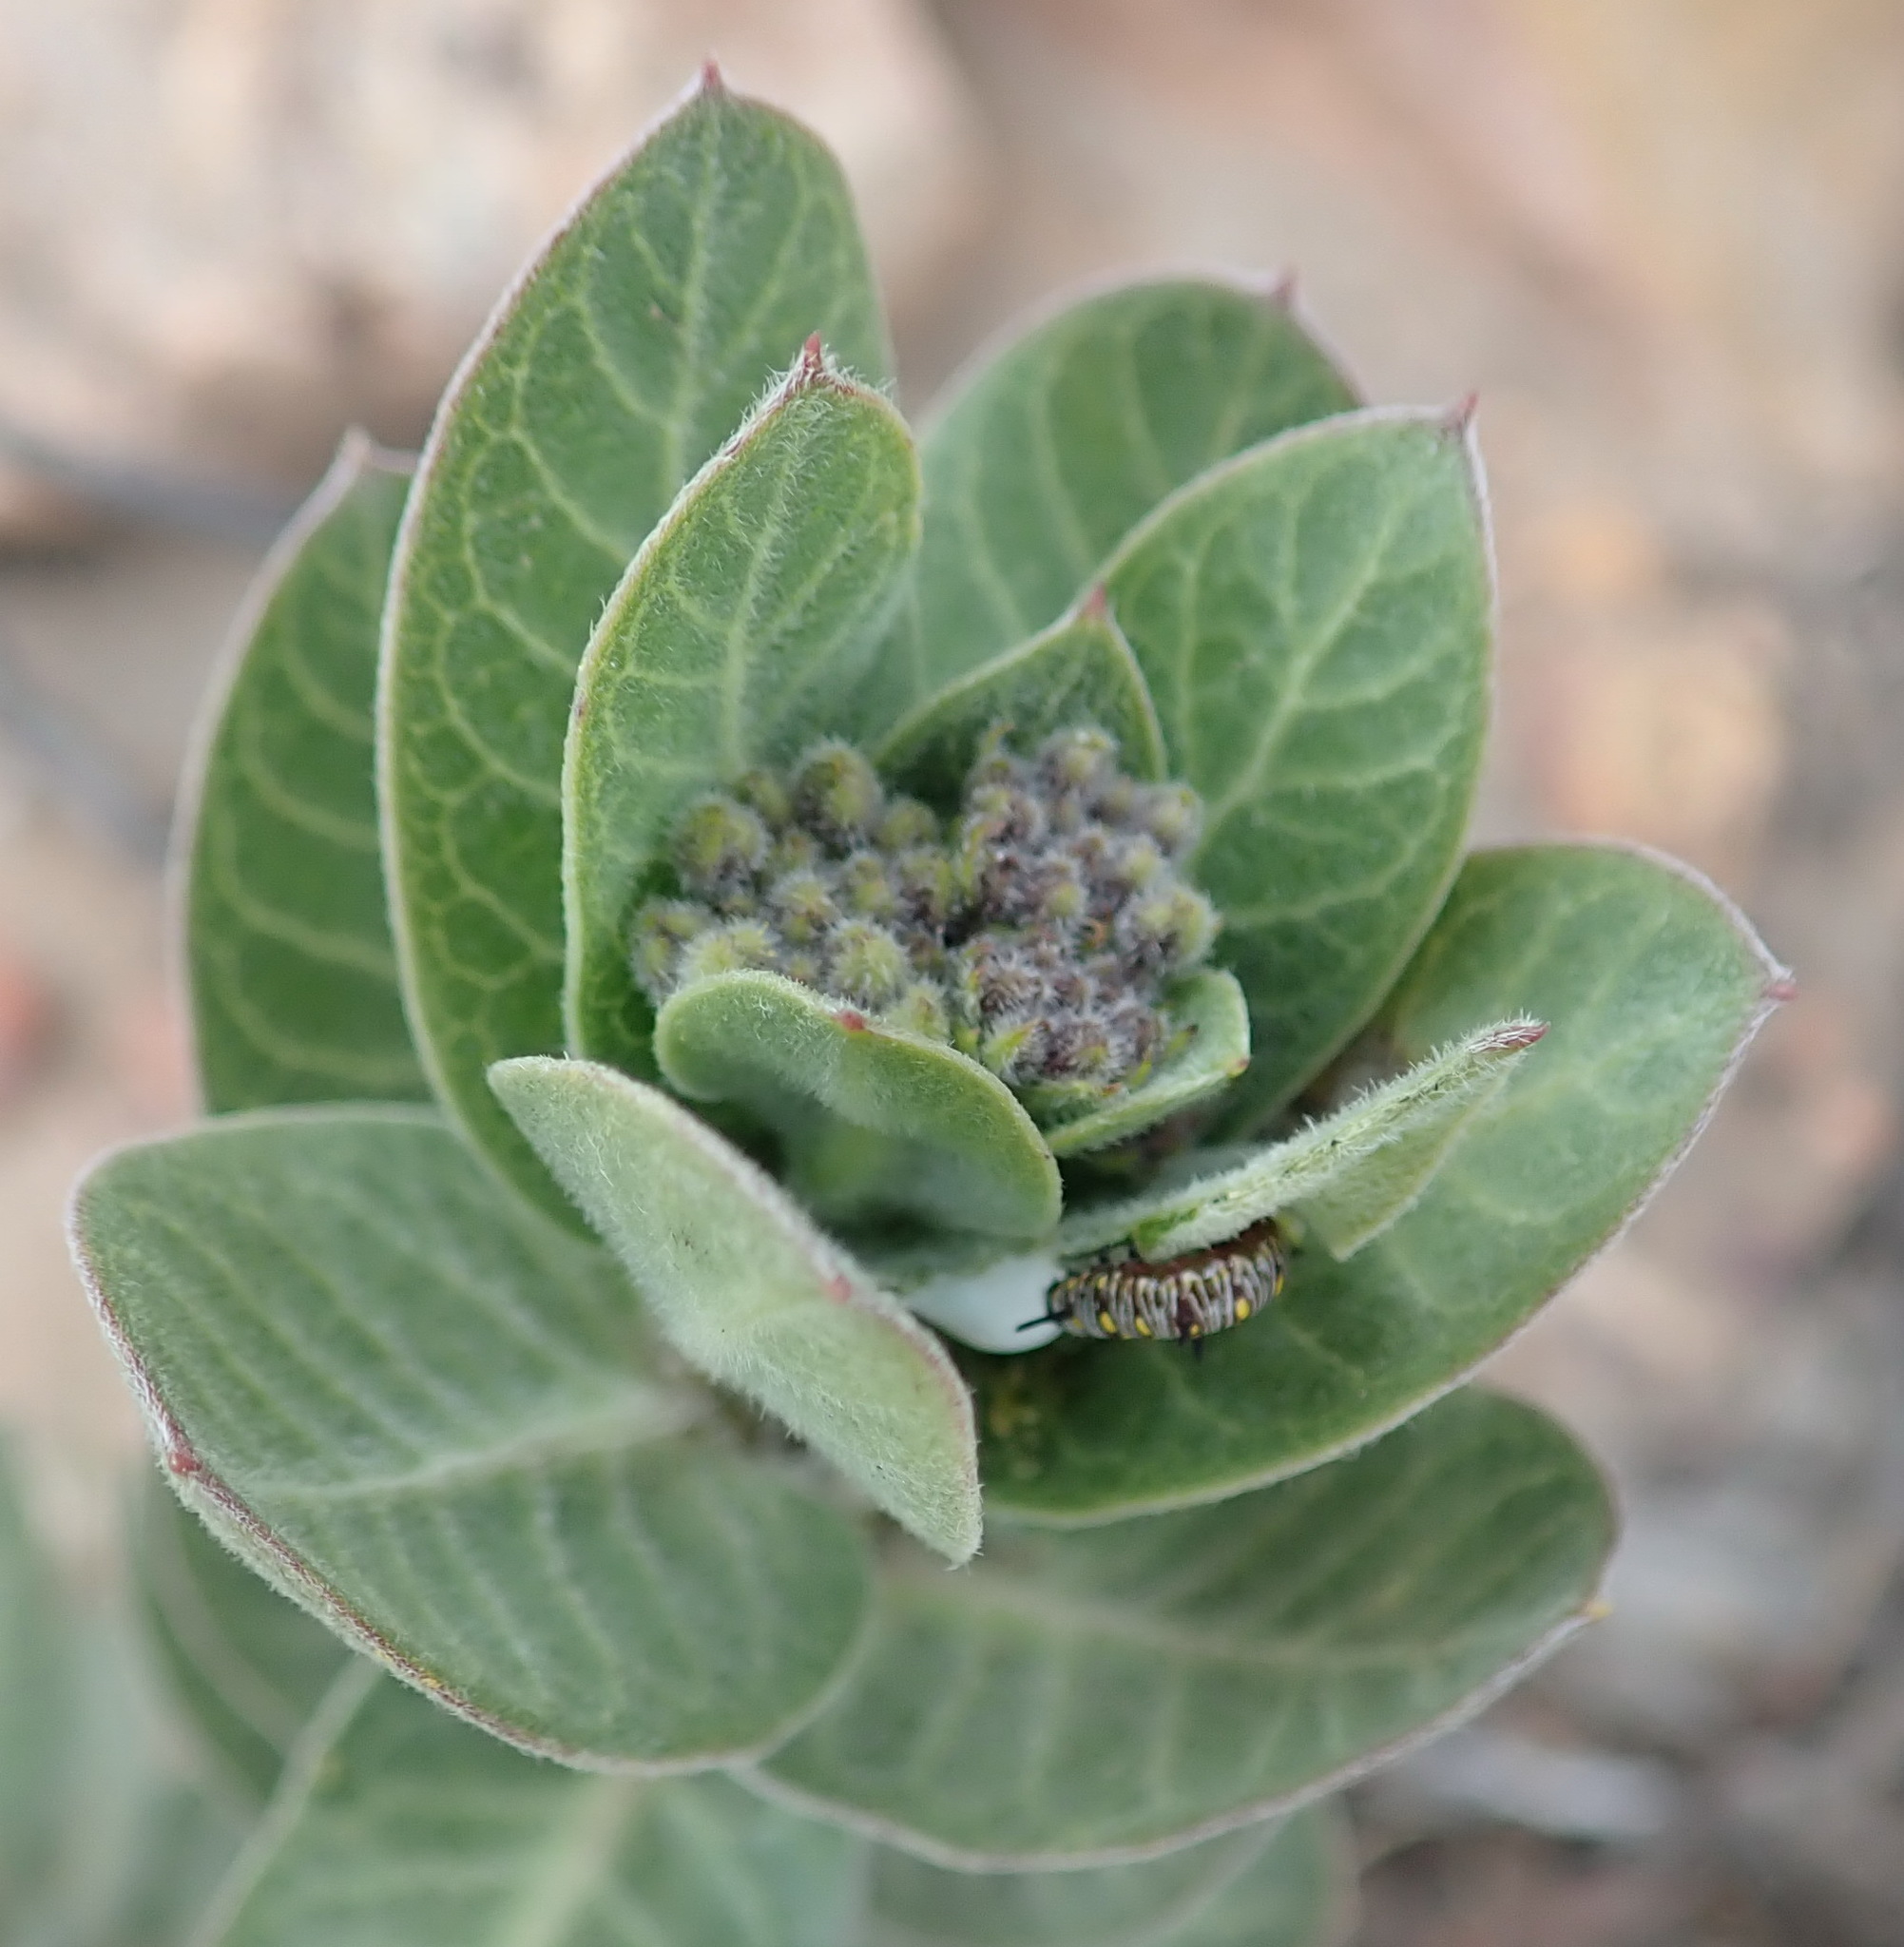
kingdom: Plantae
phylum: Tracheophyta
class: Magnoliopsida
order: Gentianales
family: Apocynaceae
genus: Gomphocarpus
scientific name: Gomphocarpus cancellatus
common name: Wild cotton
